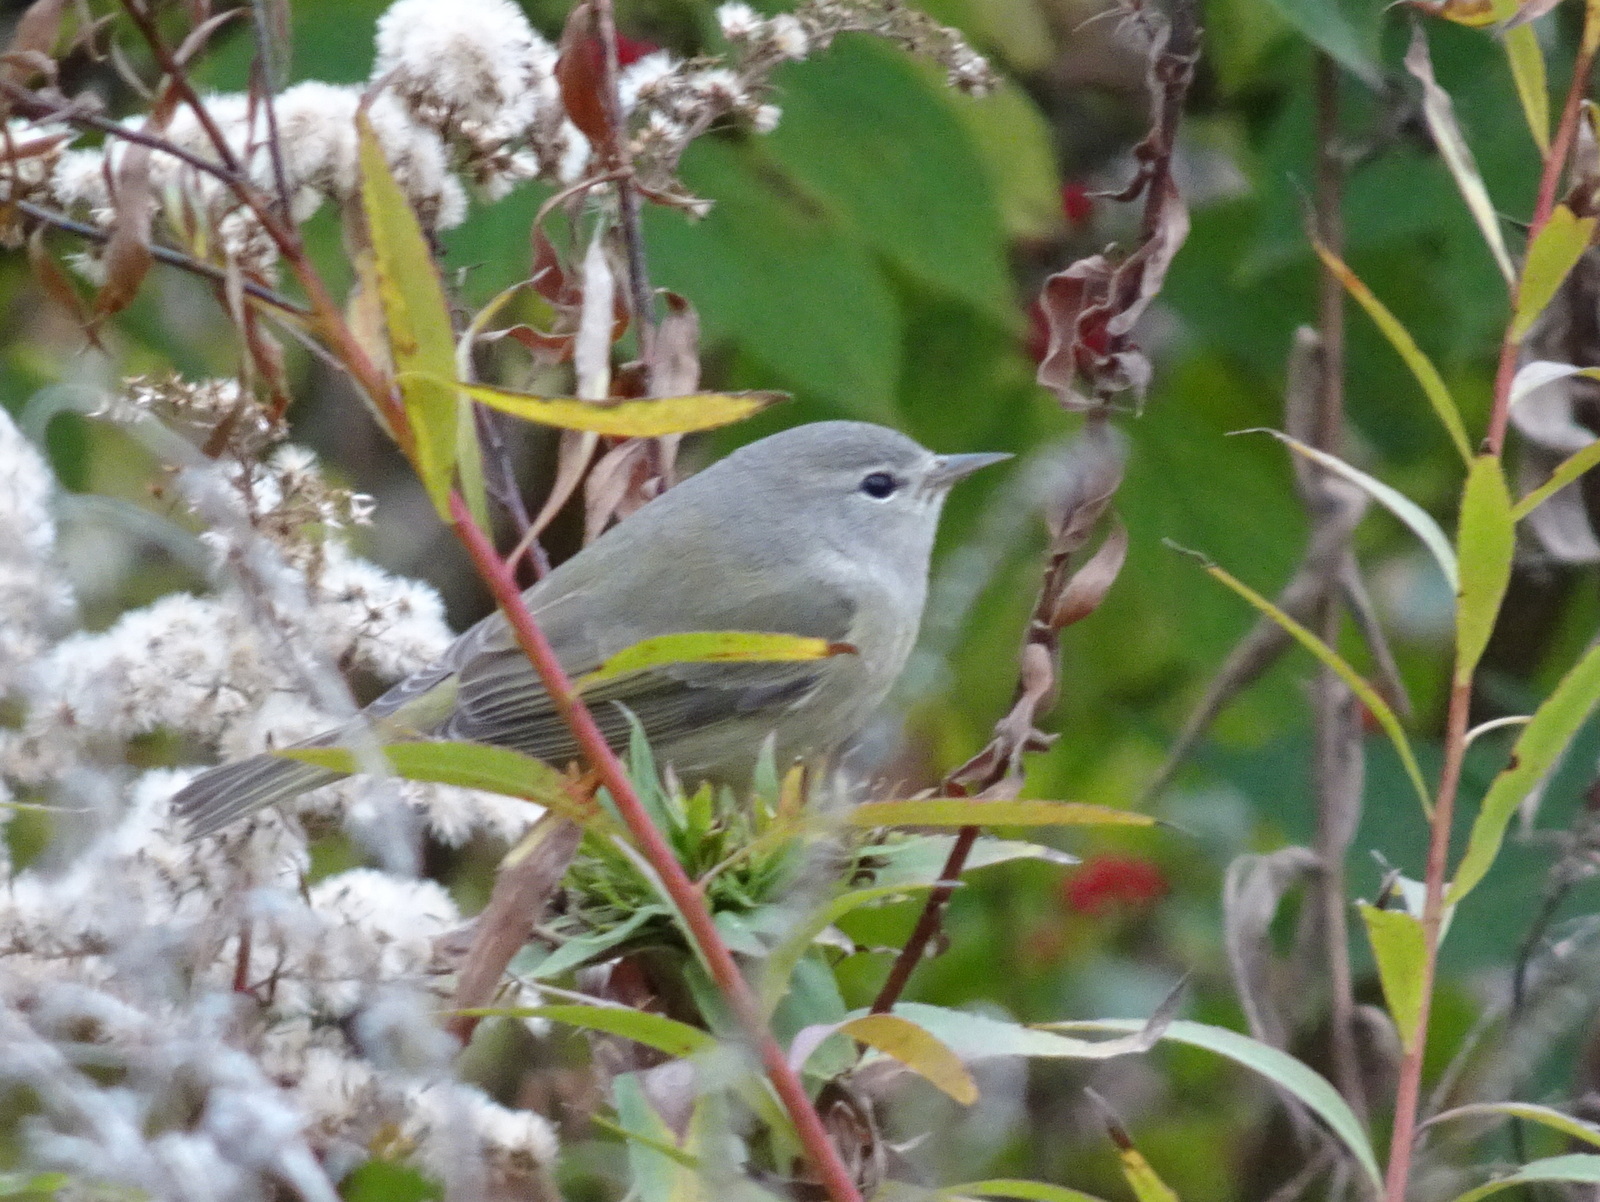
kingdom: Animalia
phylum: Chordata
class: Aves
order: Passeriformes
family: Parulidae
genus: Leiothlypis
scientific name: Leiothlypis celata
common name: Orange-crowned warbler
